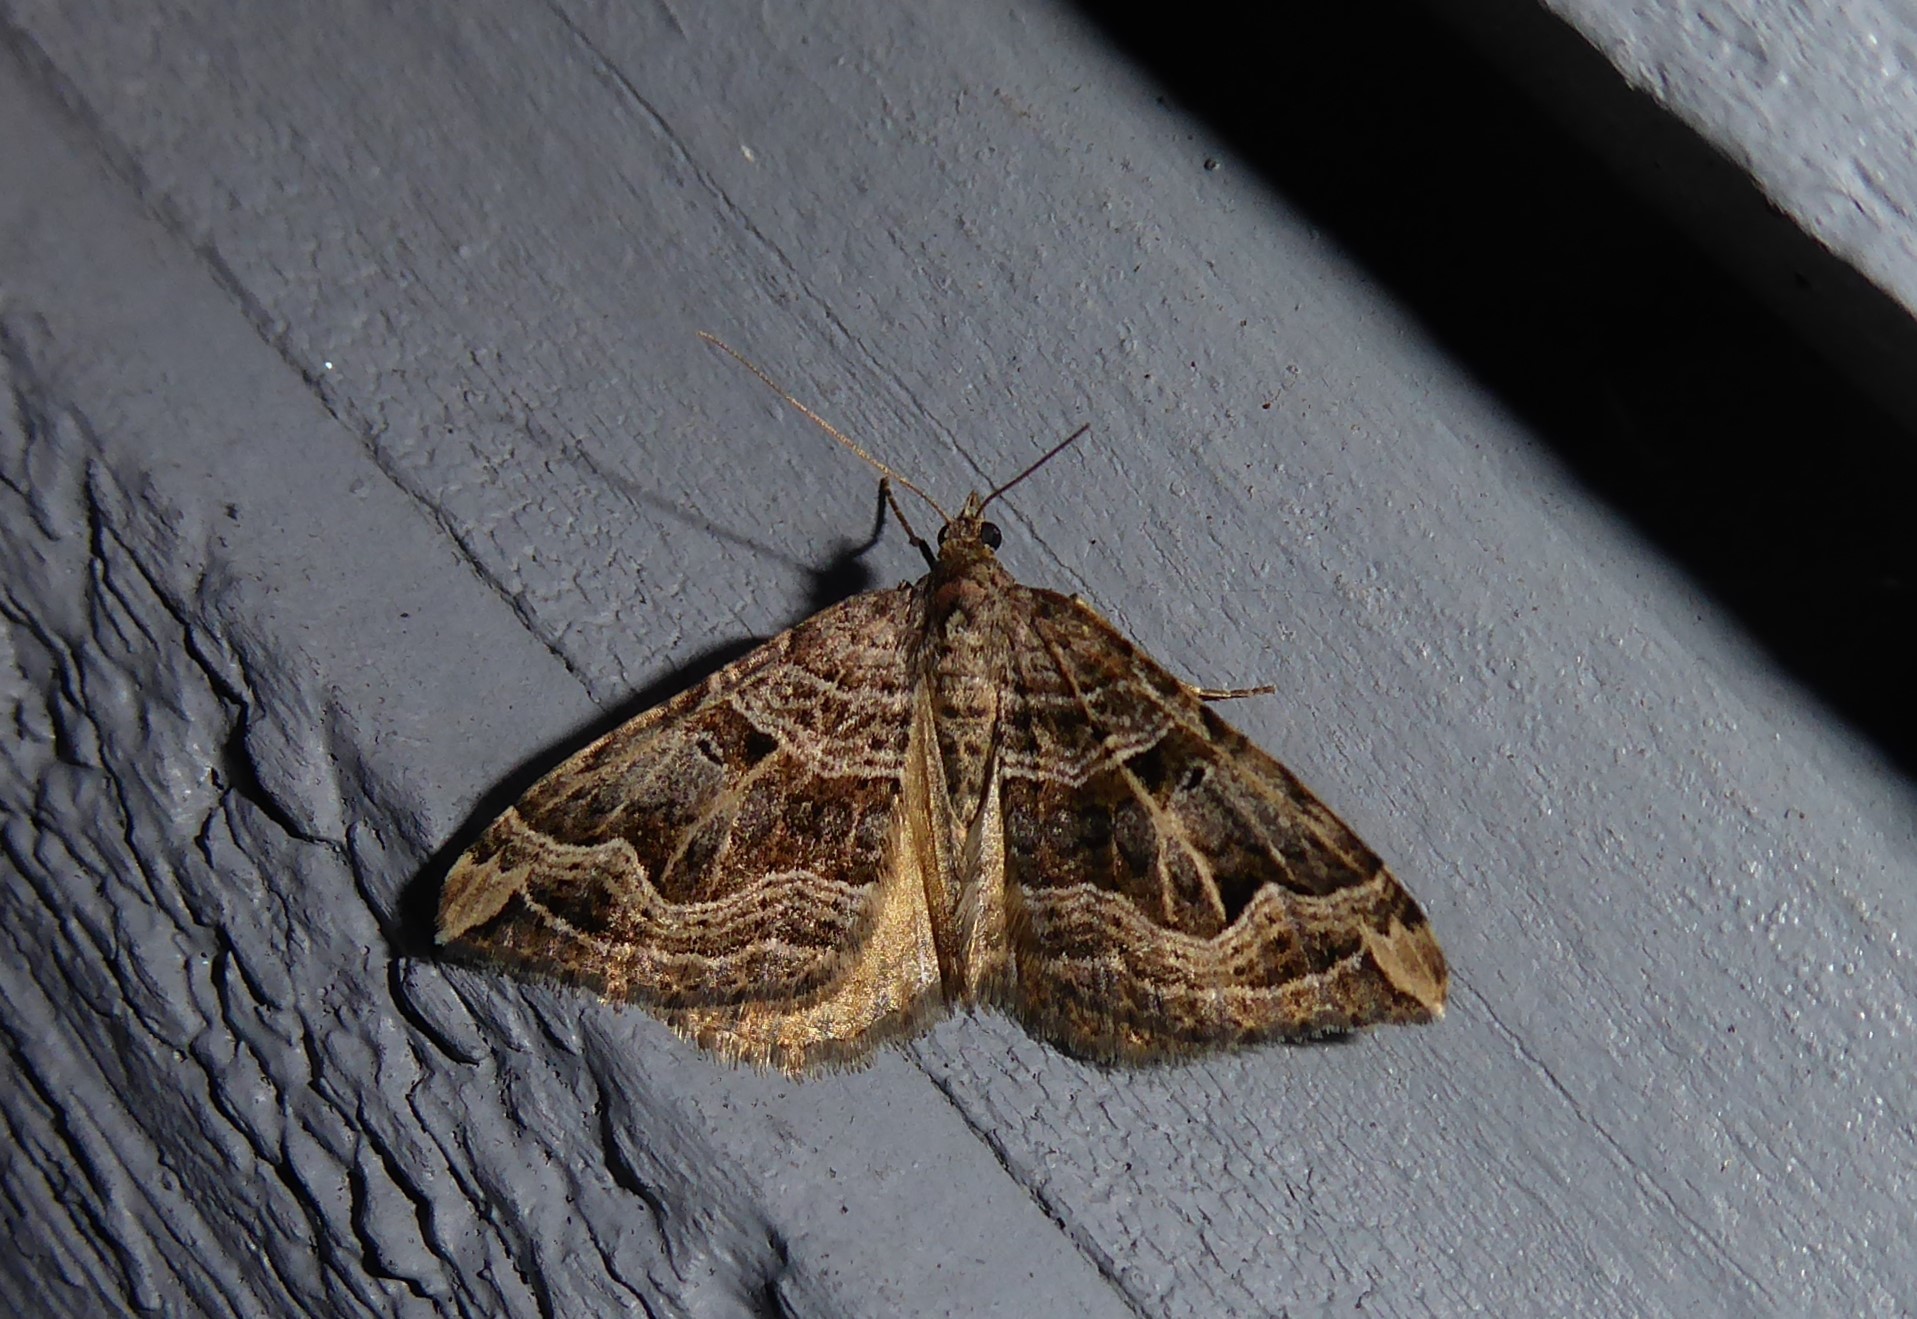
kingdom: Animalia
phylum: Arthropoda
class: Insecta
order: Lepidoptera
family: Geometridae
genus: Xanthorhoe
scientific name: Xanthorhoe semifissata
